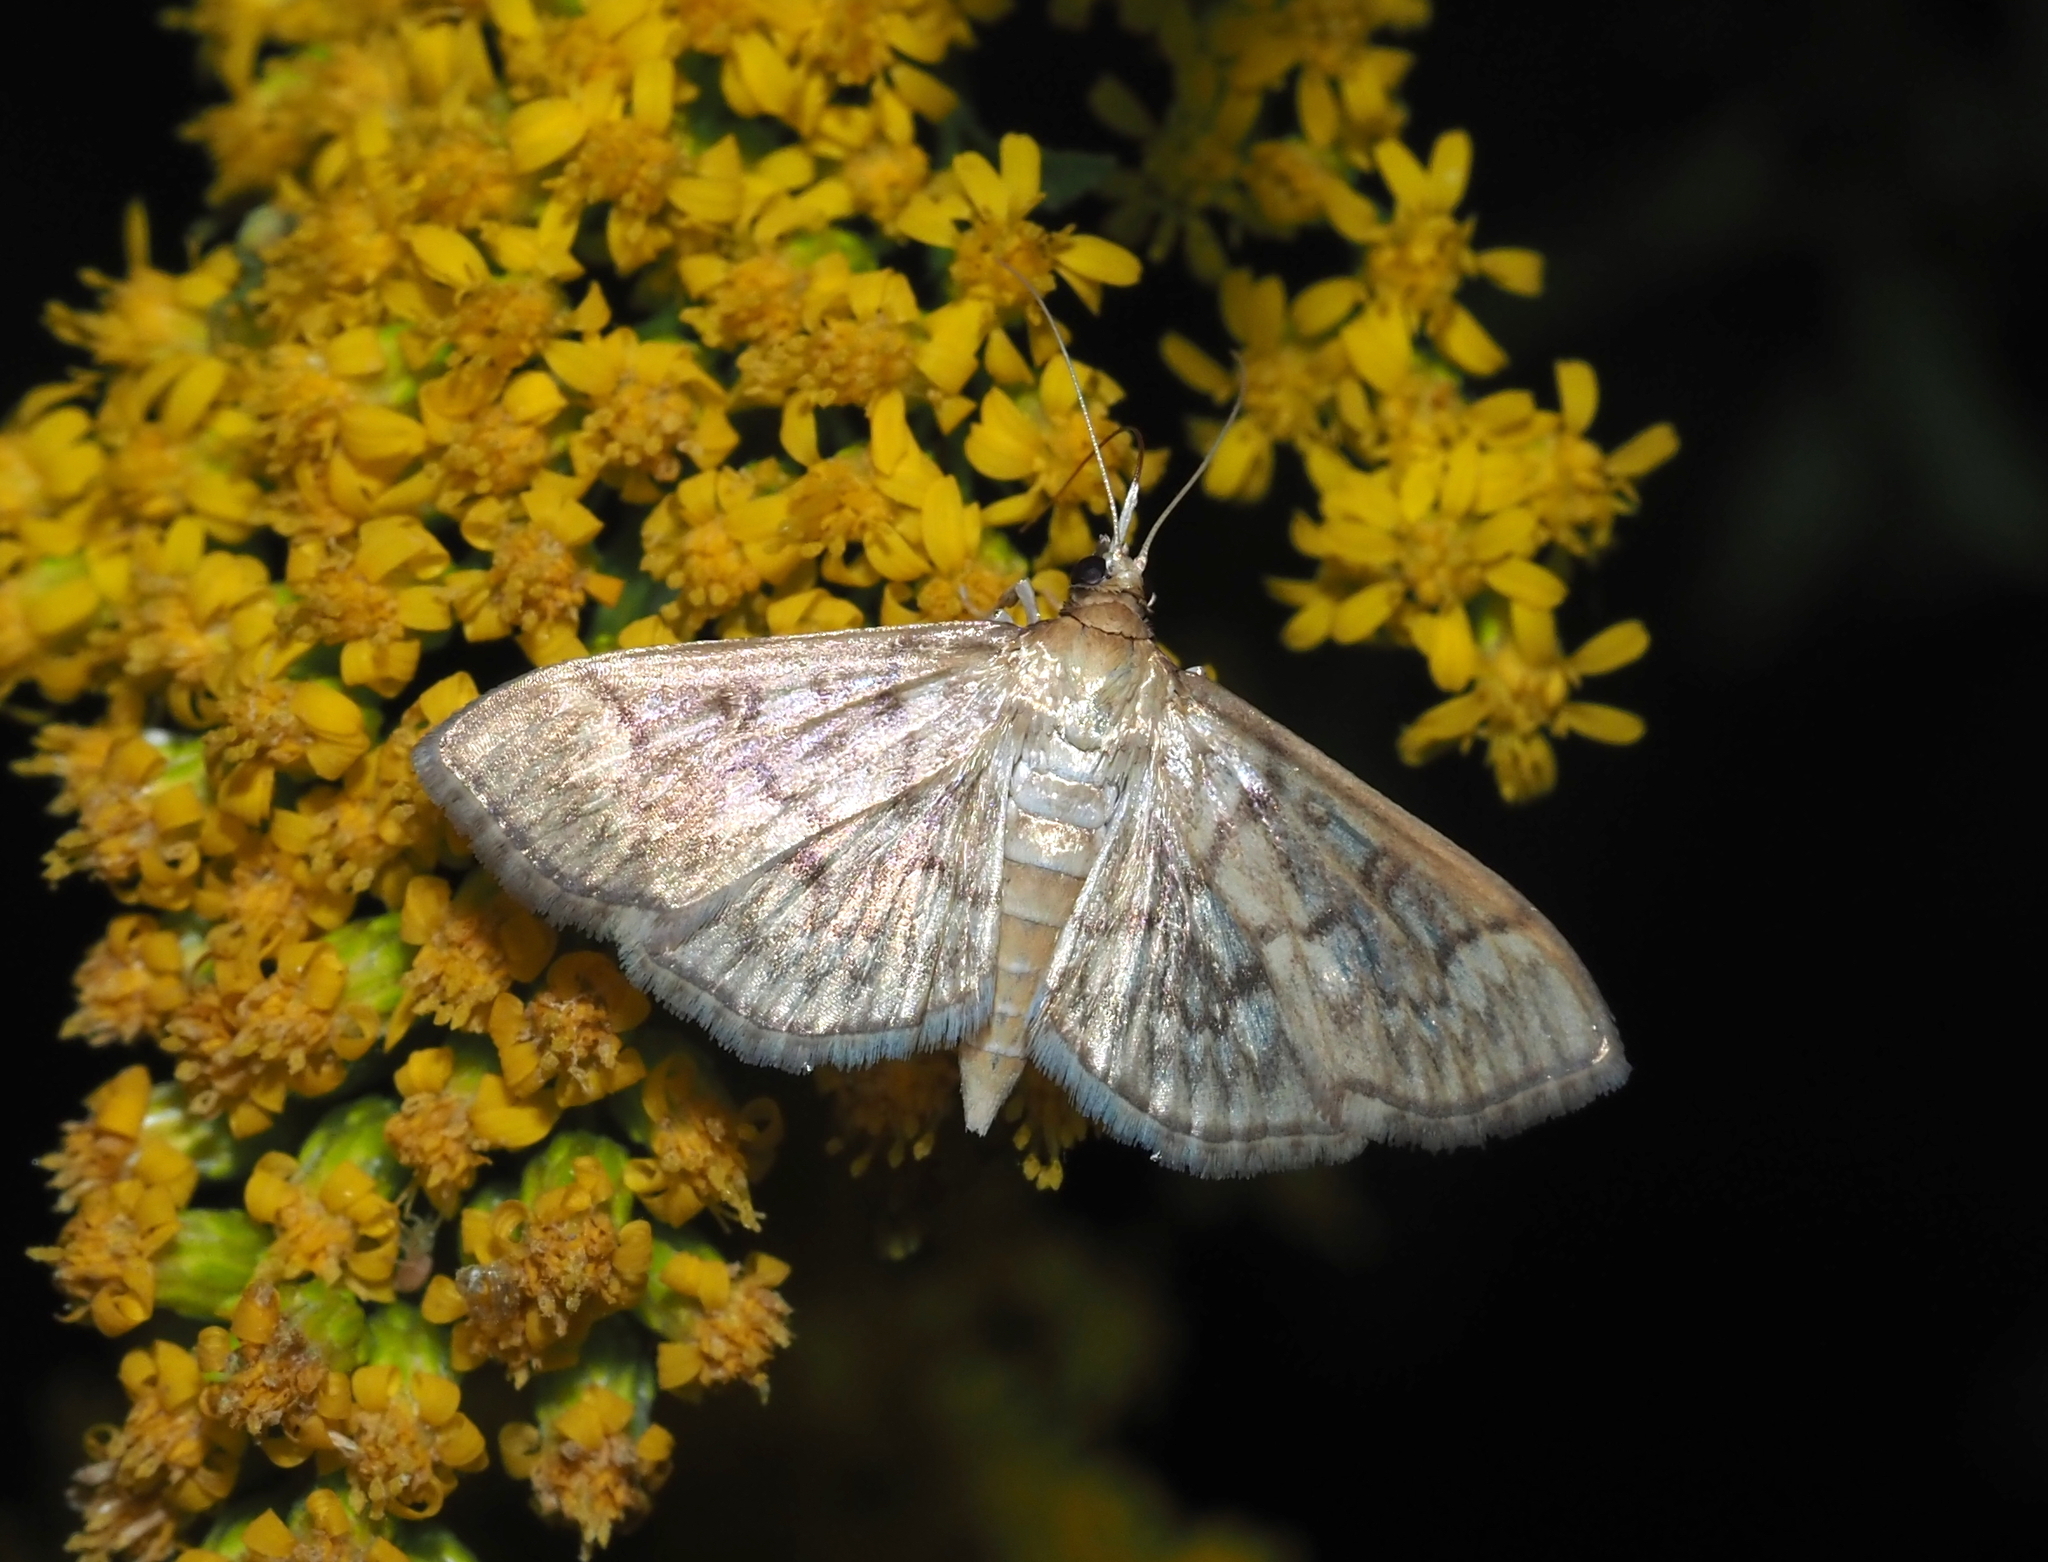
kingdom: Animalia
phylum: Arthropoda
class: Insecta
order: Lepidoptera
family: Crambidae
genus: Herpetogramma
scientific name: Herpetogramma pertextalis
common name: Bold-feathered grass moth
